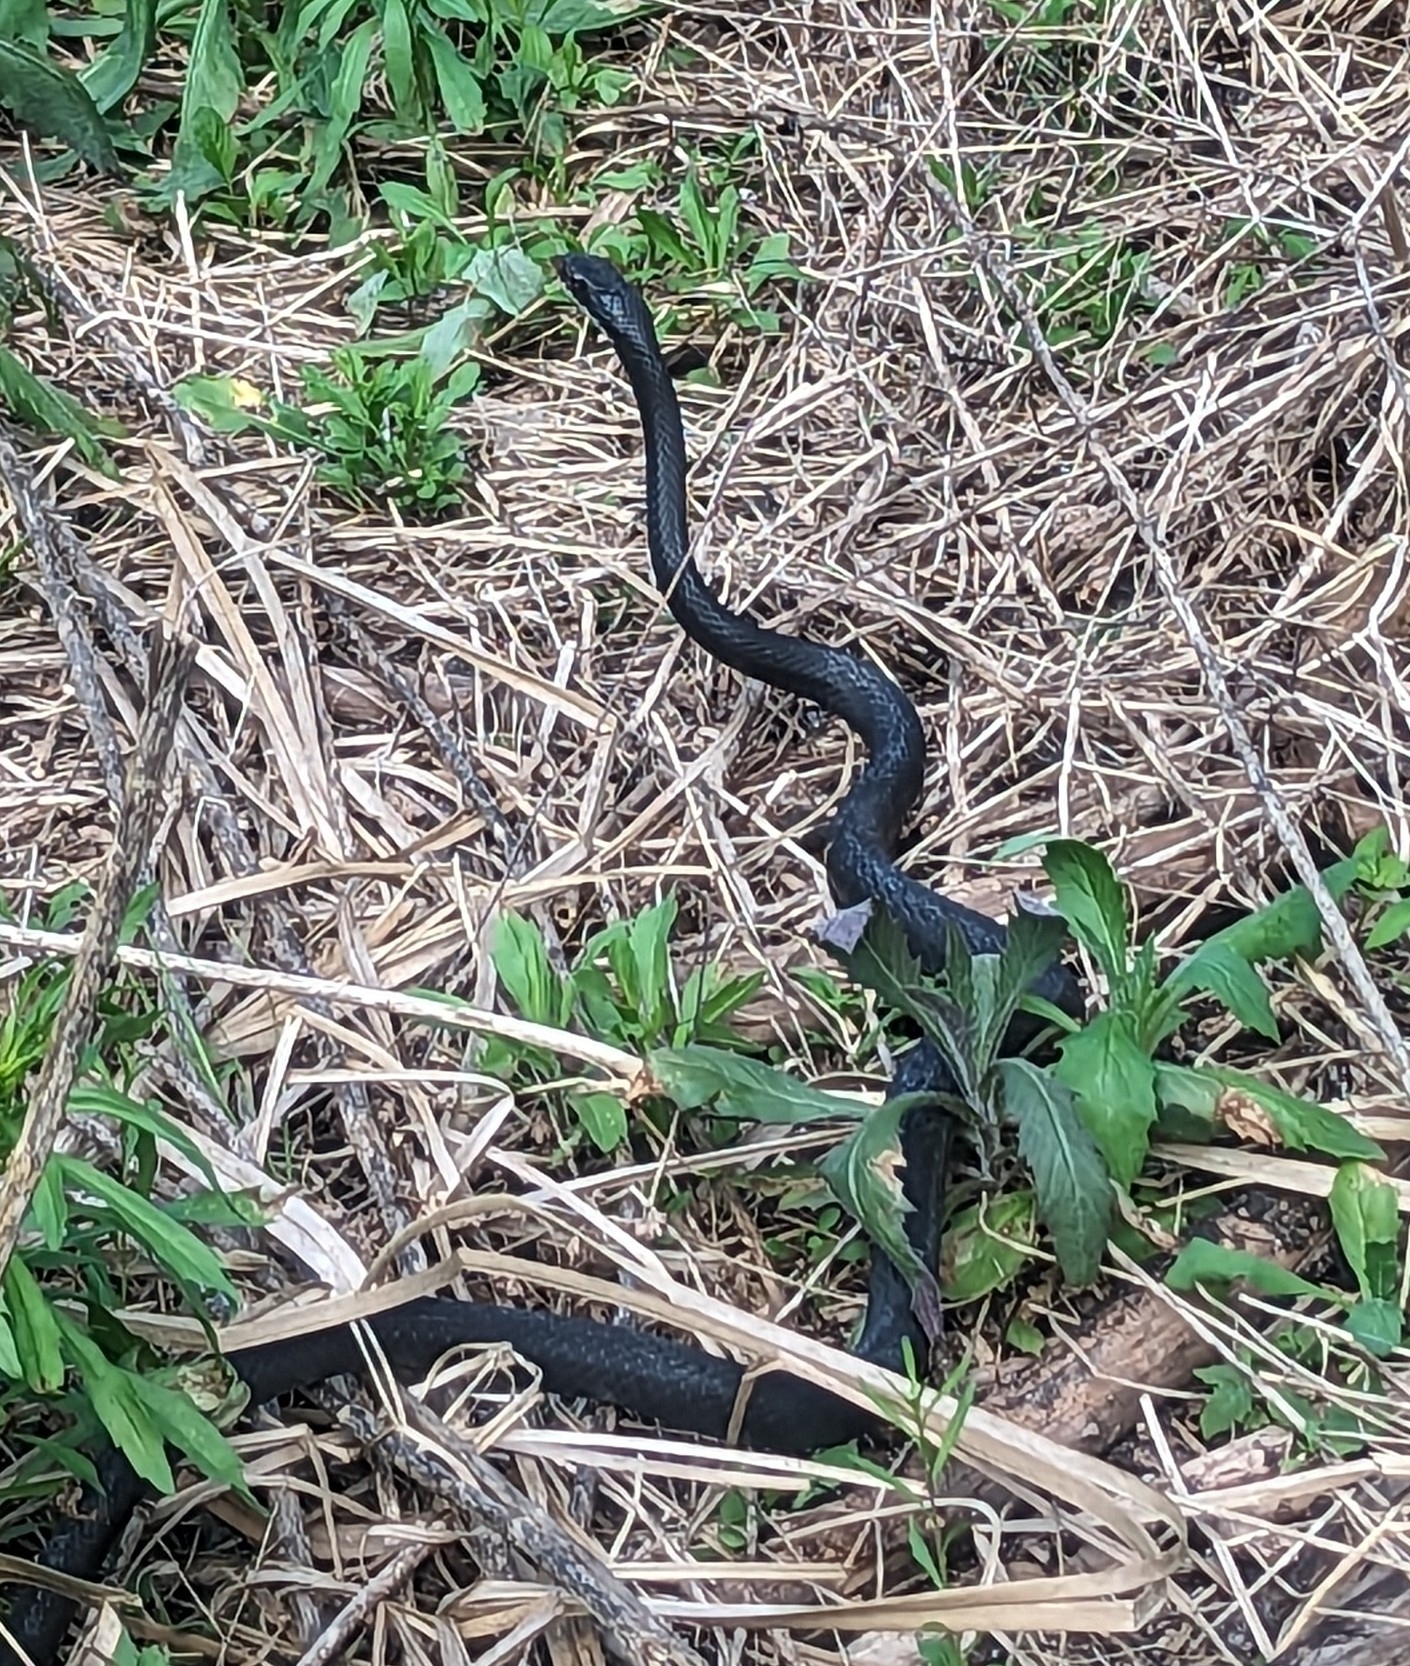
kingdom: Animalia
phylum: Chordata
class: Squamata
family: Colubridae
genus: Coluber
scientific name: Coluber constrictor
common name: Eastern racer
